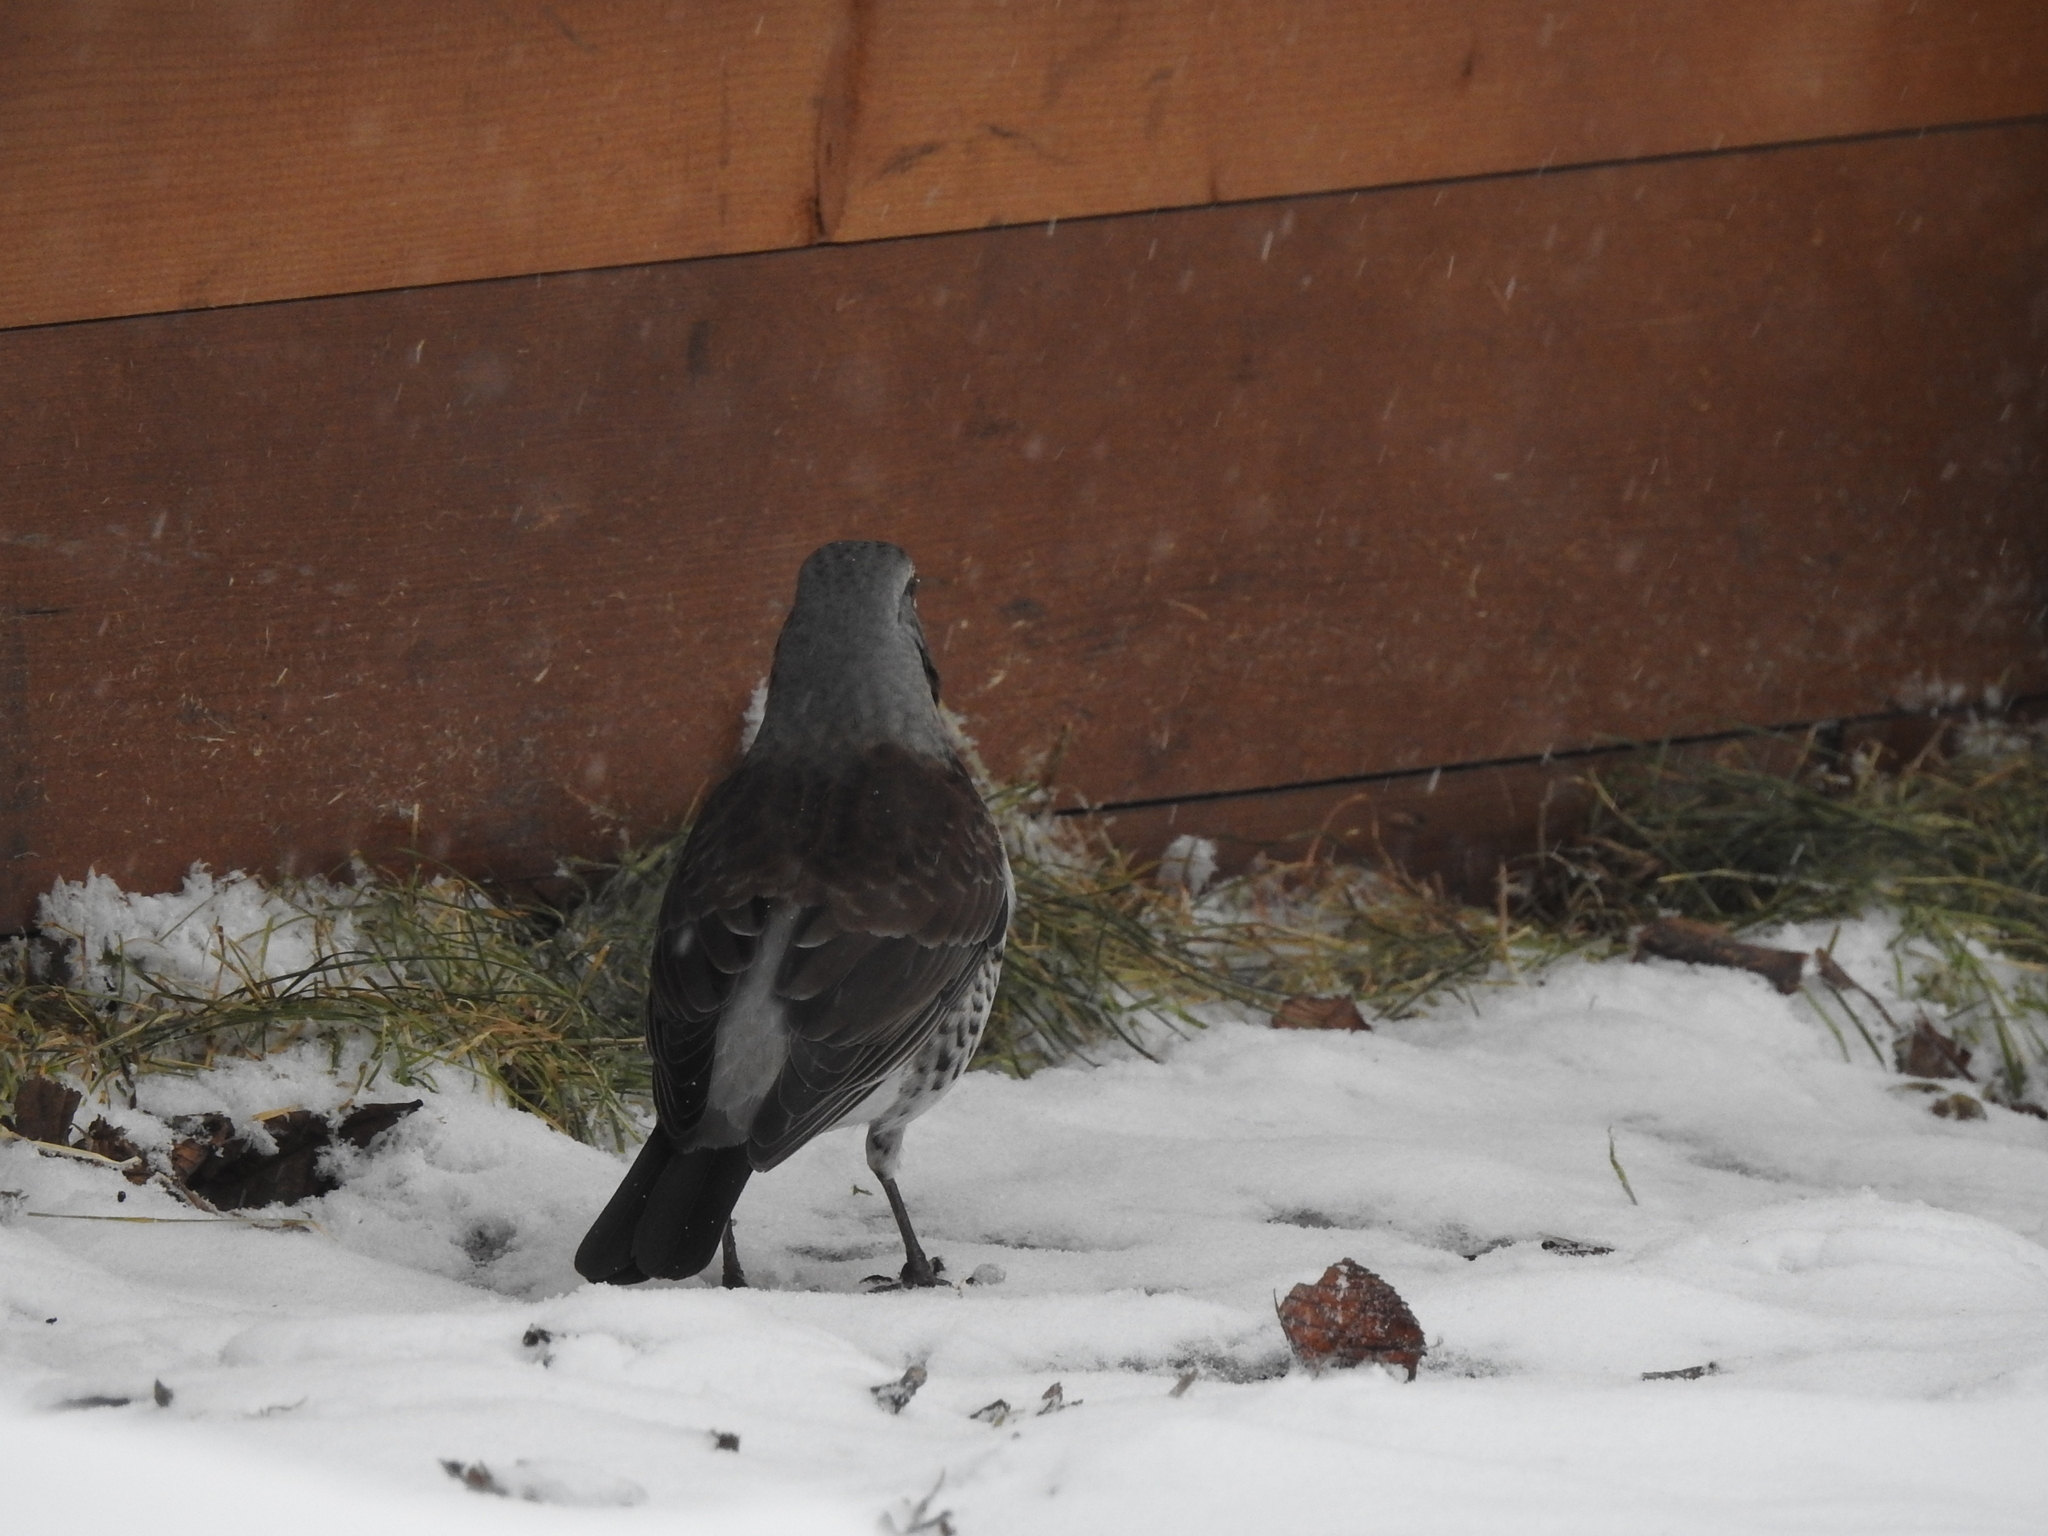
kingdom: Animalia
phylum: Chordata
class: Aves
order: Passeriformes
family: Turdidae
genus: Turdus
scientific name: Turdus pilaris
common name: Fieldfare
